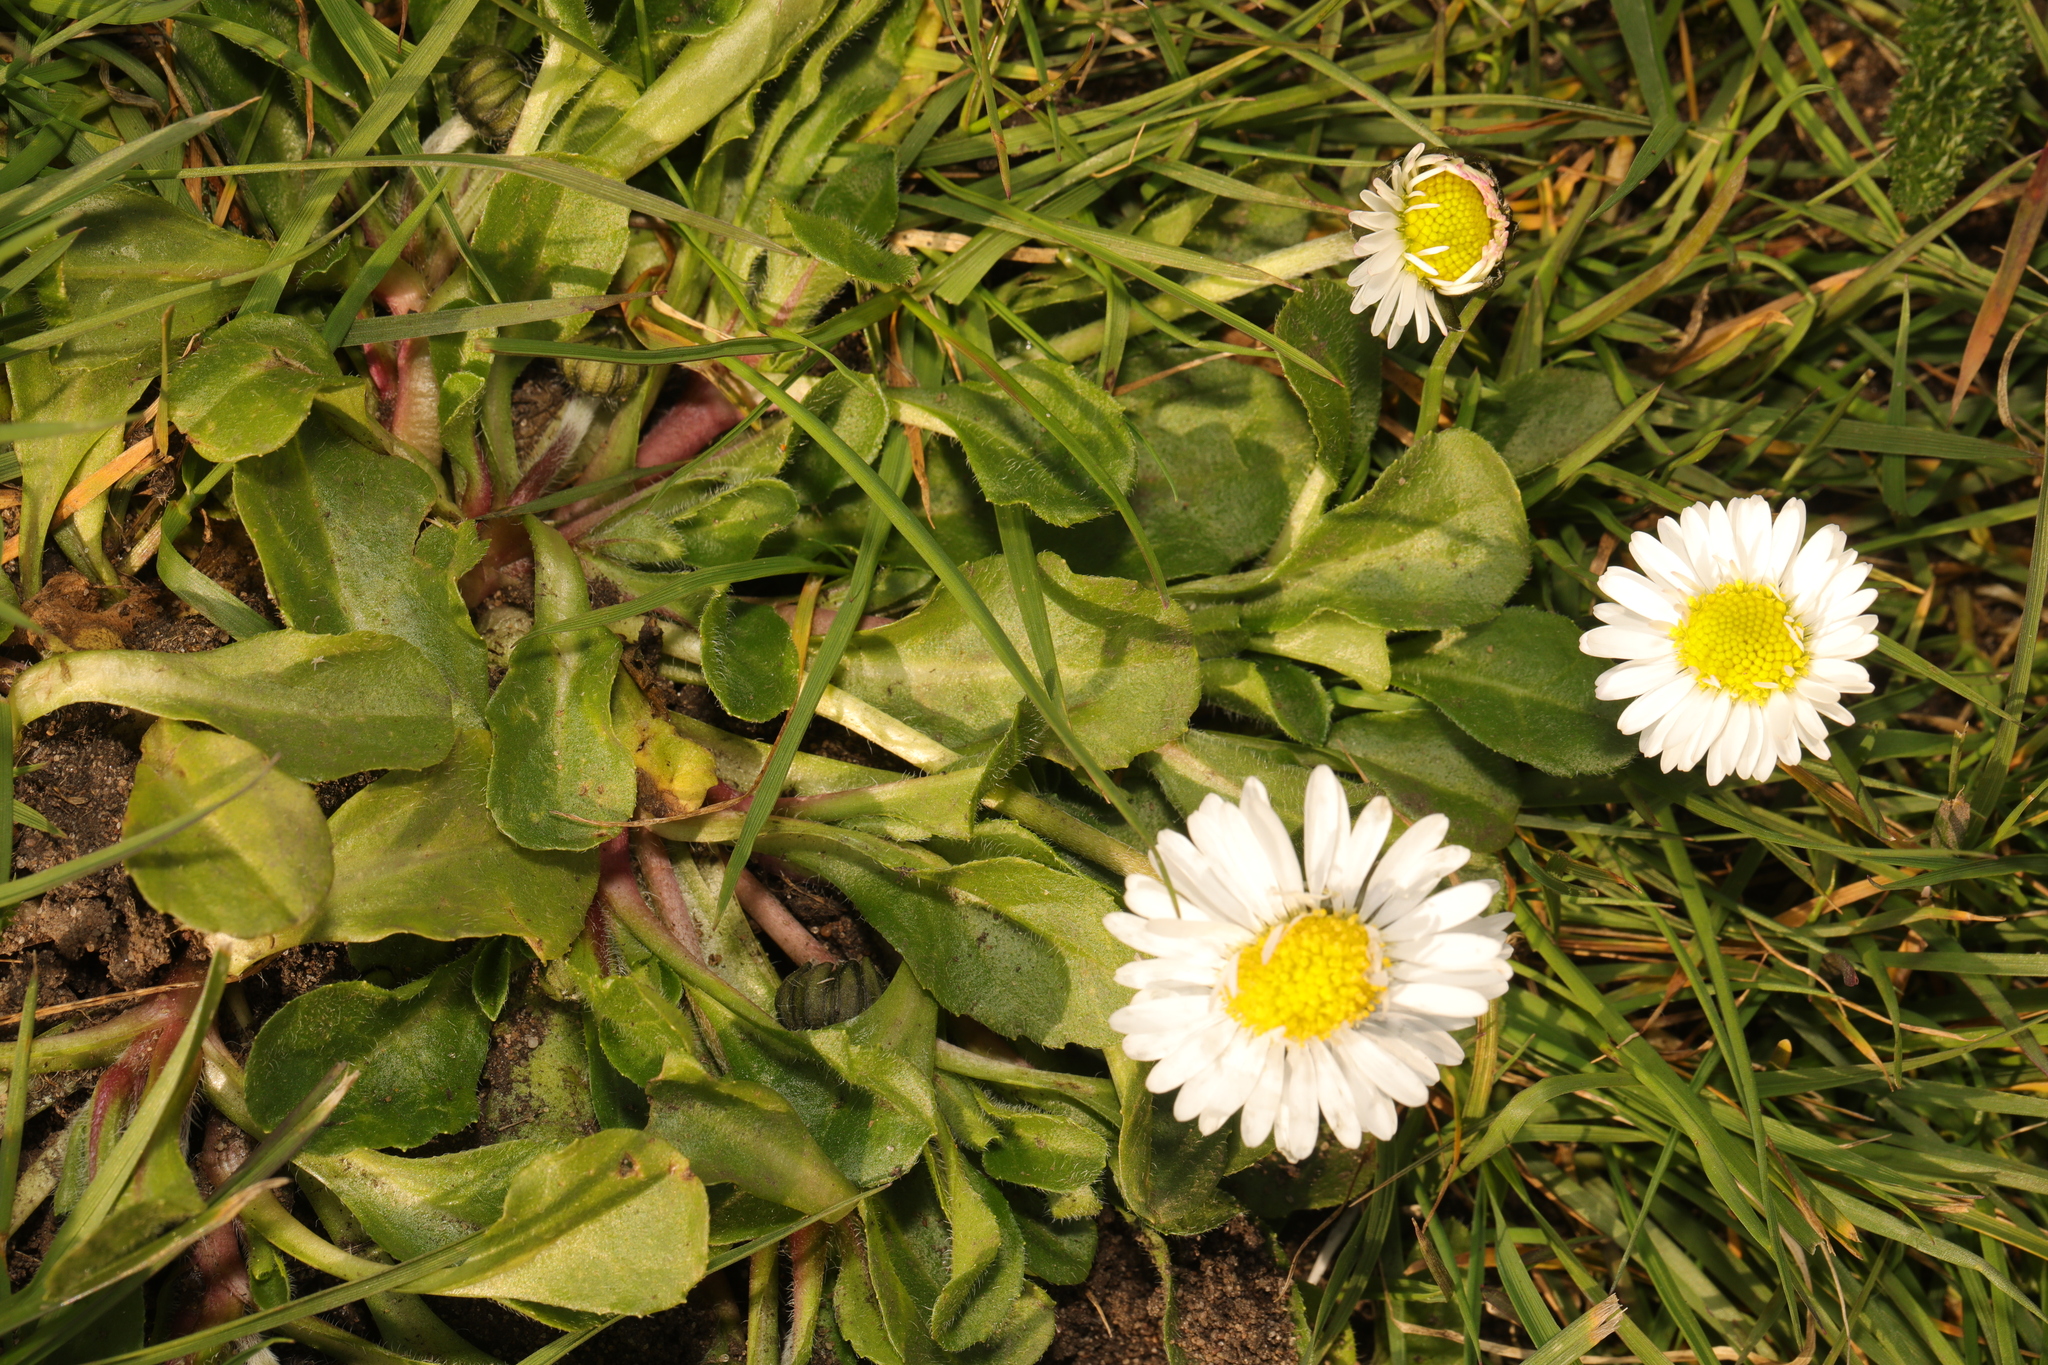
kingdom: Plantae
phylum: Tracheophyta
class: Magnoliopsida
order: Asterales
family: Asteraceae
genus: Bellis
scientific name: Bellis perennis
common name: Lawndaisy
